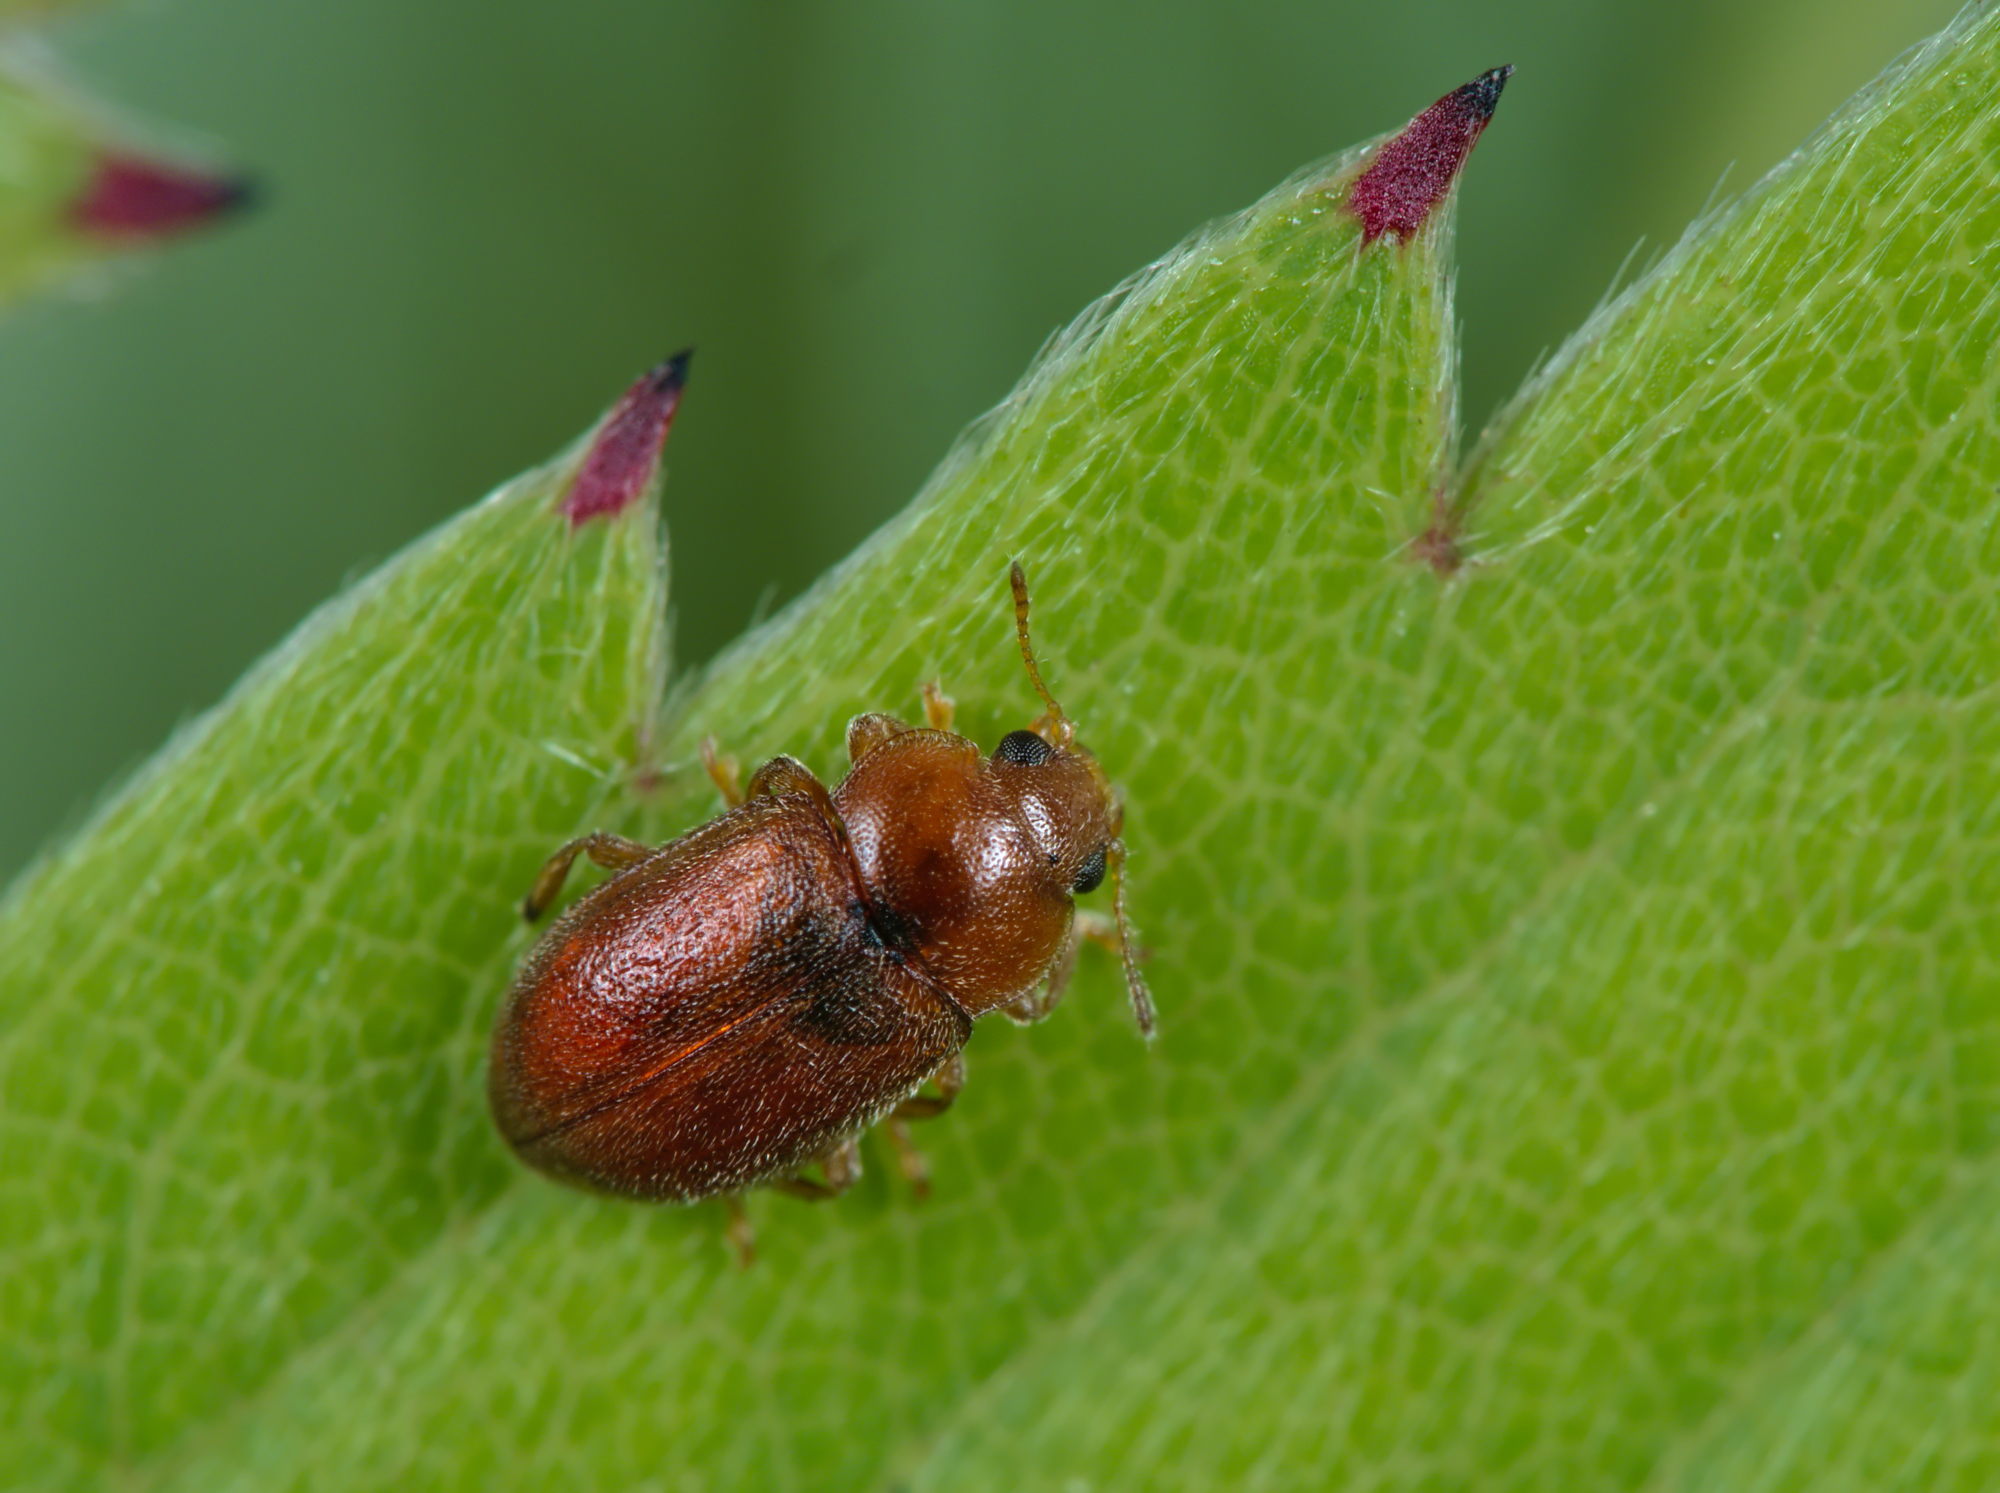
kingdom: Animalia
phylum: Arthropoda
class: Insecta
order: Coleoptera
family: Coccinellidae
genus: Coccidula
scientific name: Coccidula rufa
